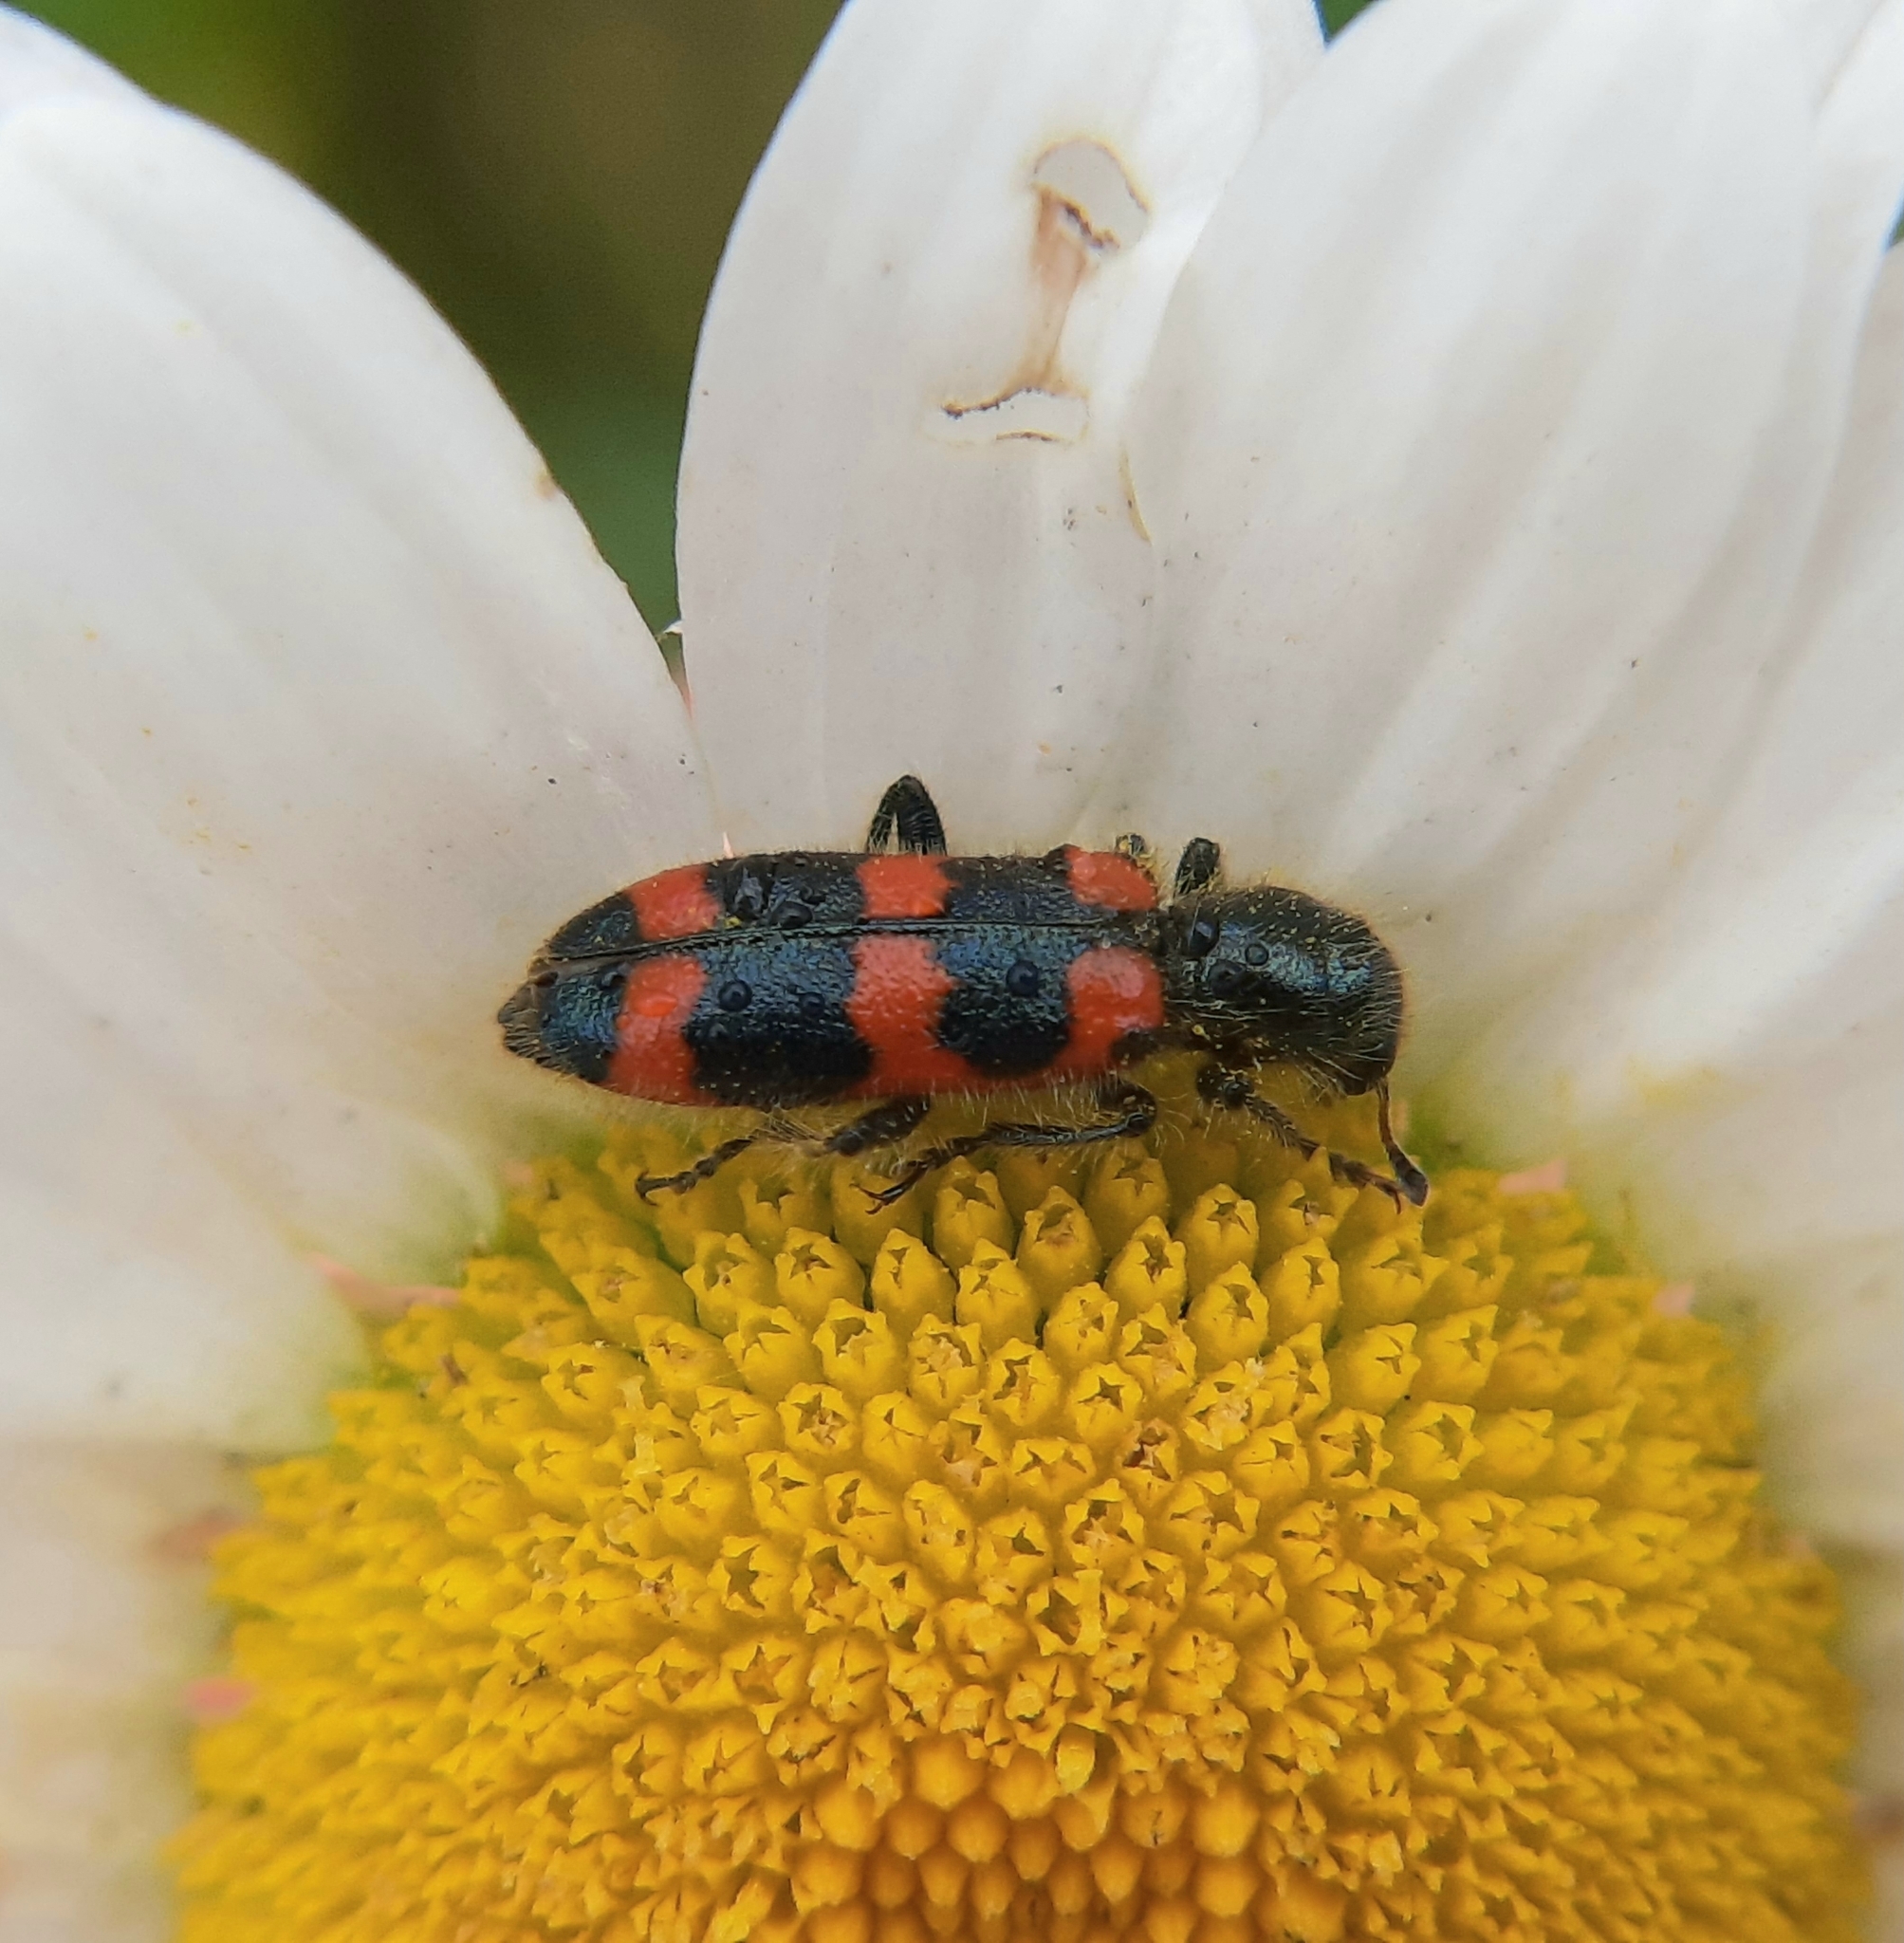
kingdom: Animalia
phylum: Arthropoda
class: Insecta
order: Coleoptera
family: Cleridae
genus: Trichodes
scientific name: Trichodes nutalli
